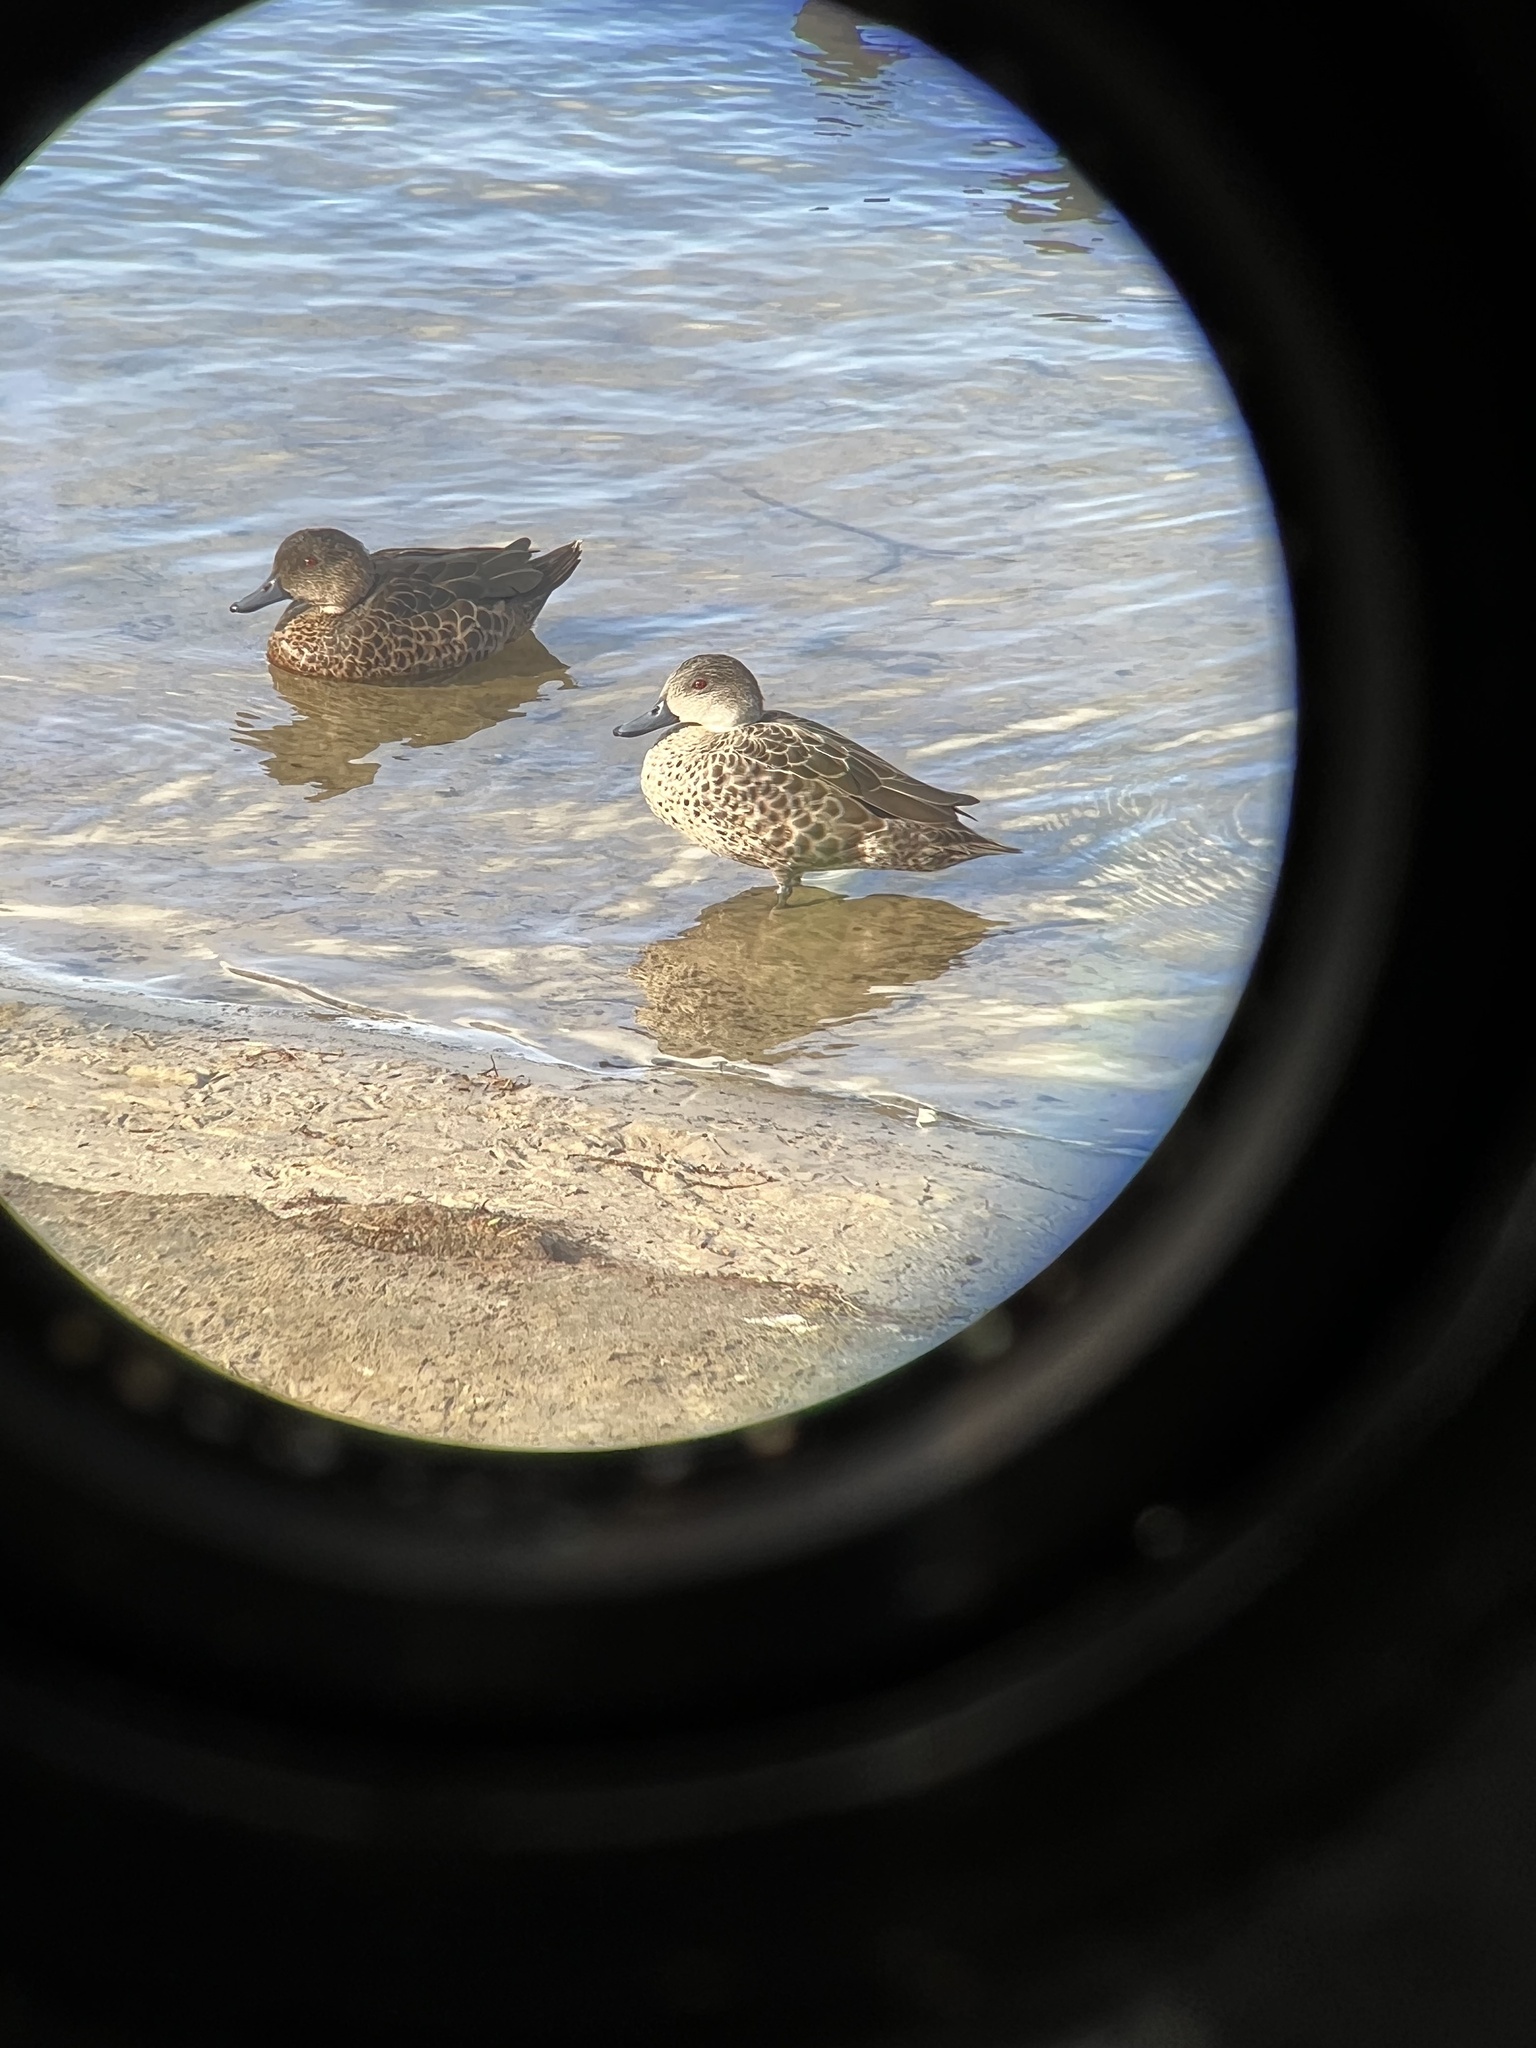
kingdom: Animalia
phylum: Chordata
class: Aves
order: Anseriformes
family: Anatidae
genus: Anas
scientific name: Anas gracilis
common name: Grey teal
